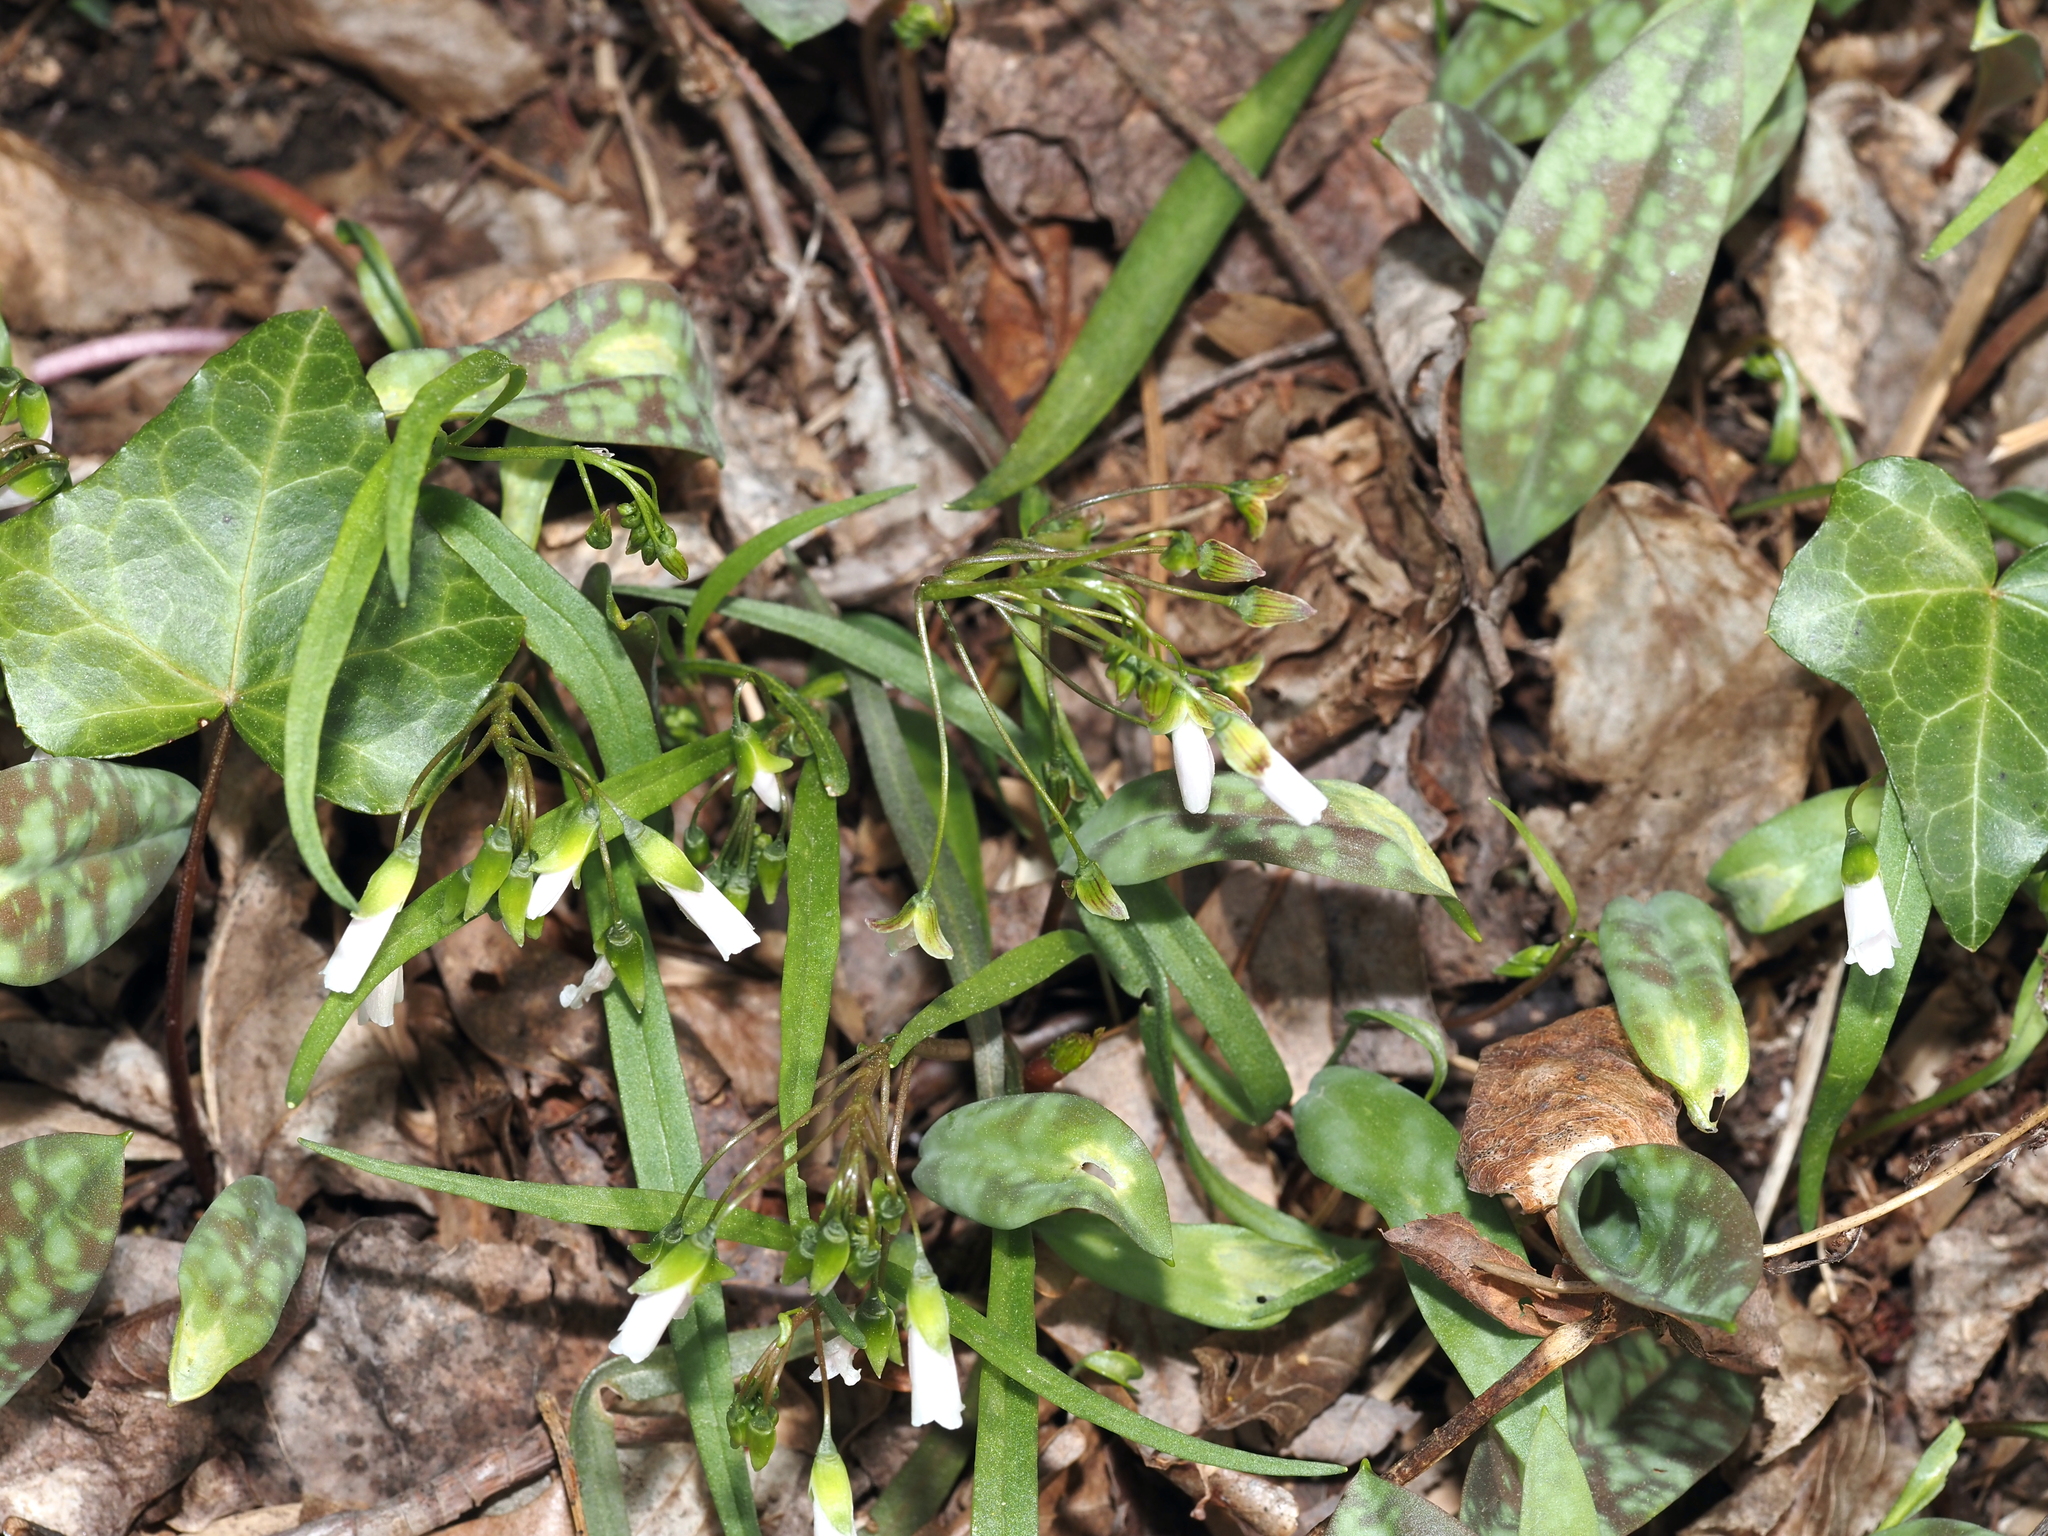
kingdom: Plantae
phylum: Tracheophyta
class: Magnoliopsida
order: Caryophyllales
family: Montiaceae
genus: Claytonia
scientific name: Claytonia virginica
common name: Virginia springbeauty
